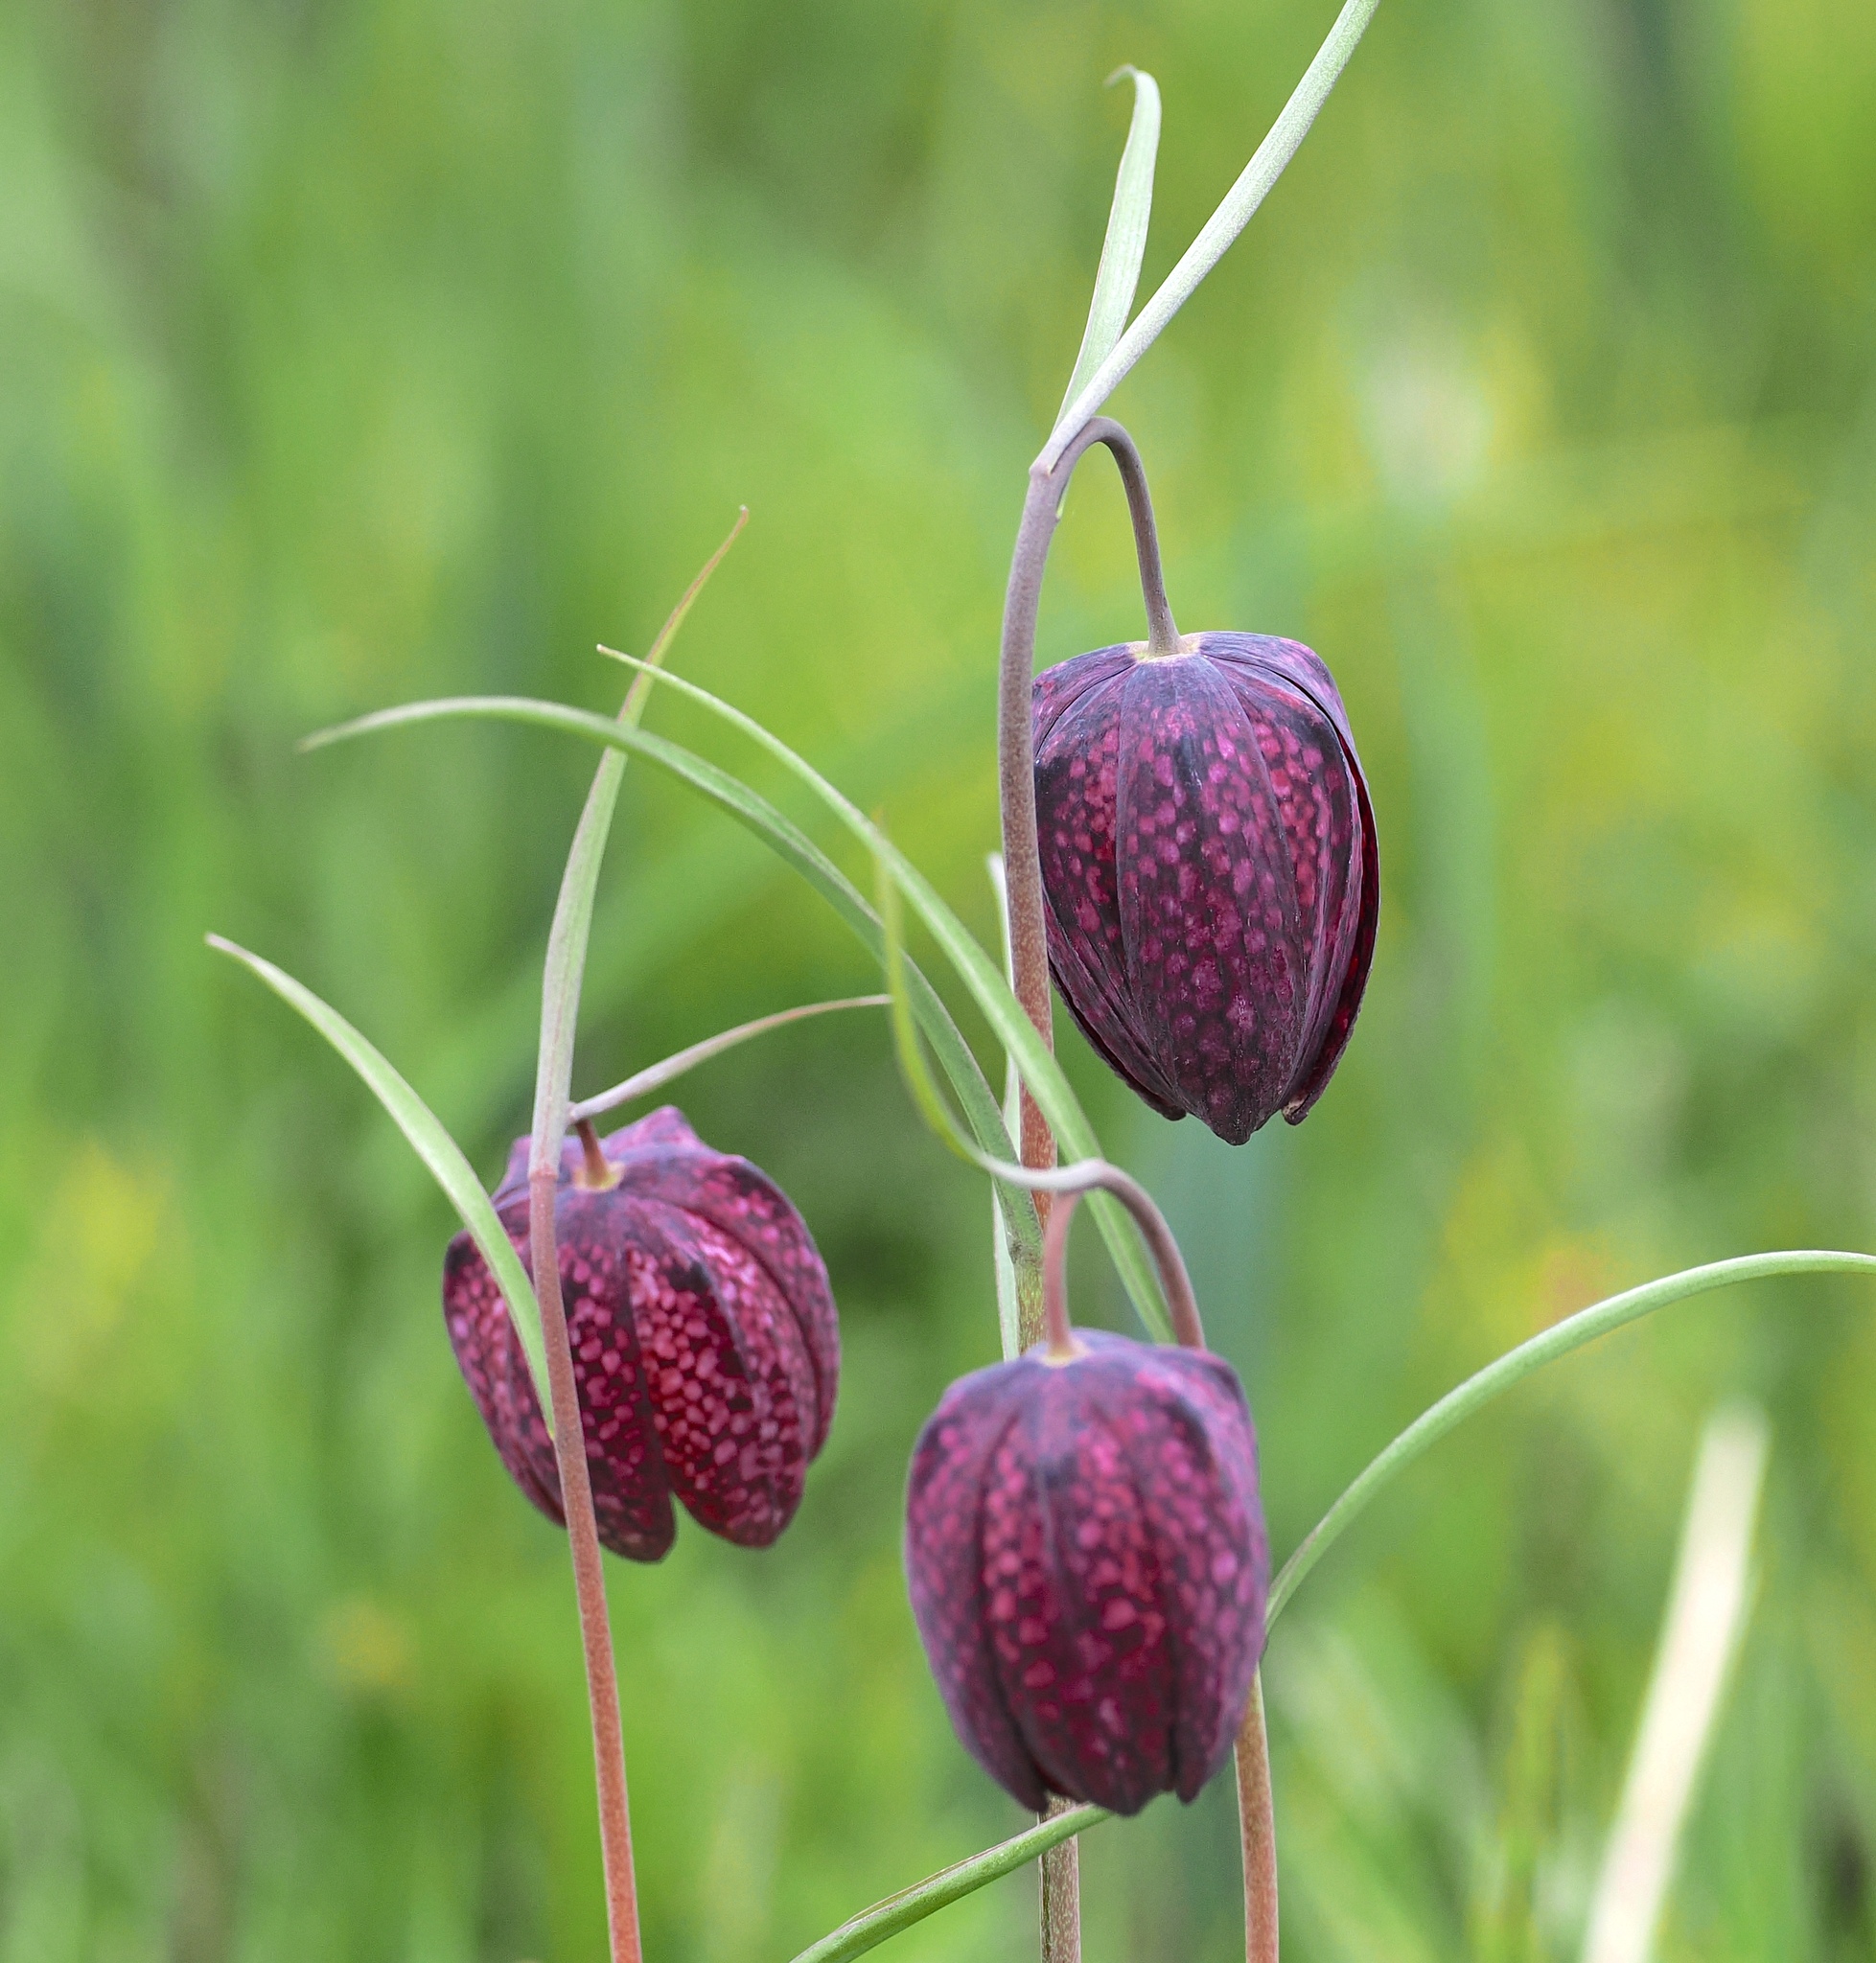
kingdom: Plantae
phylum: Tracheophyta
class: Liliopsida
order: Liliales
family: Liliaceae
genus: Fritillaria
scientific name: Fritillaria meleagris
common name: Fritillary
